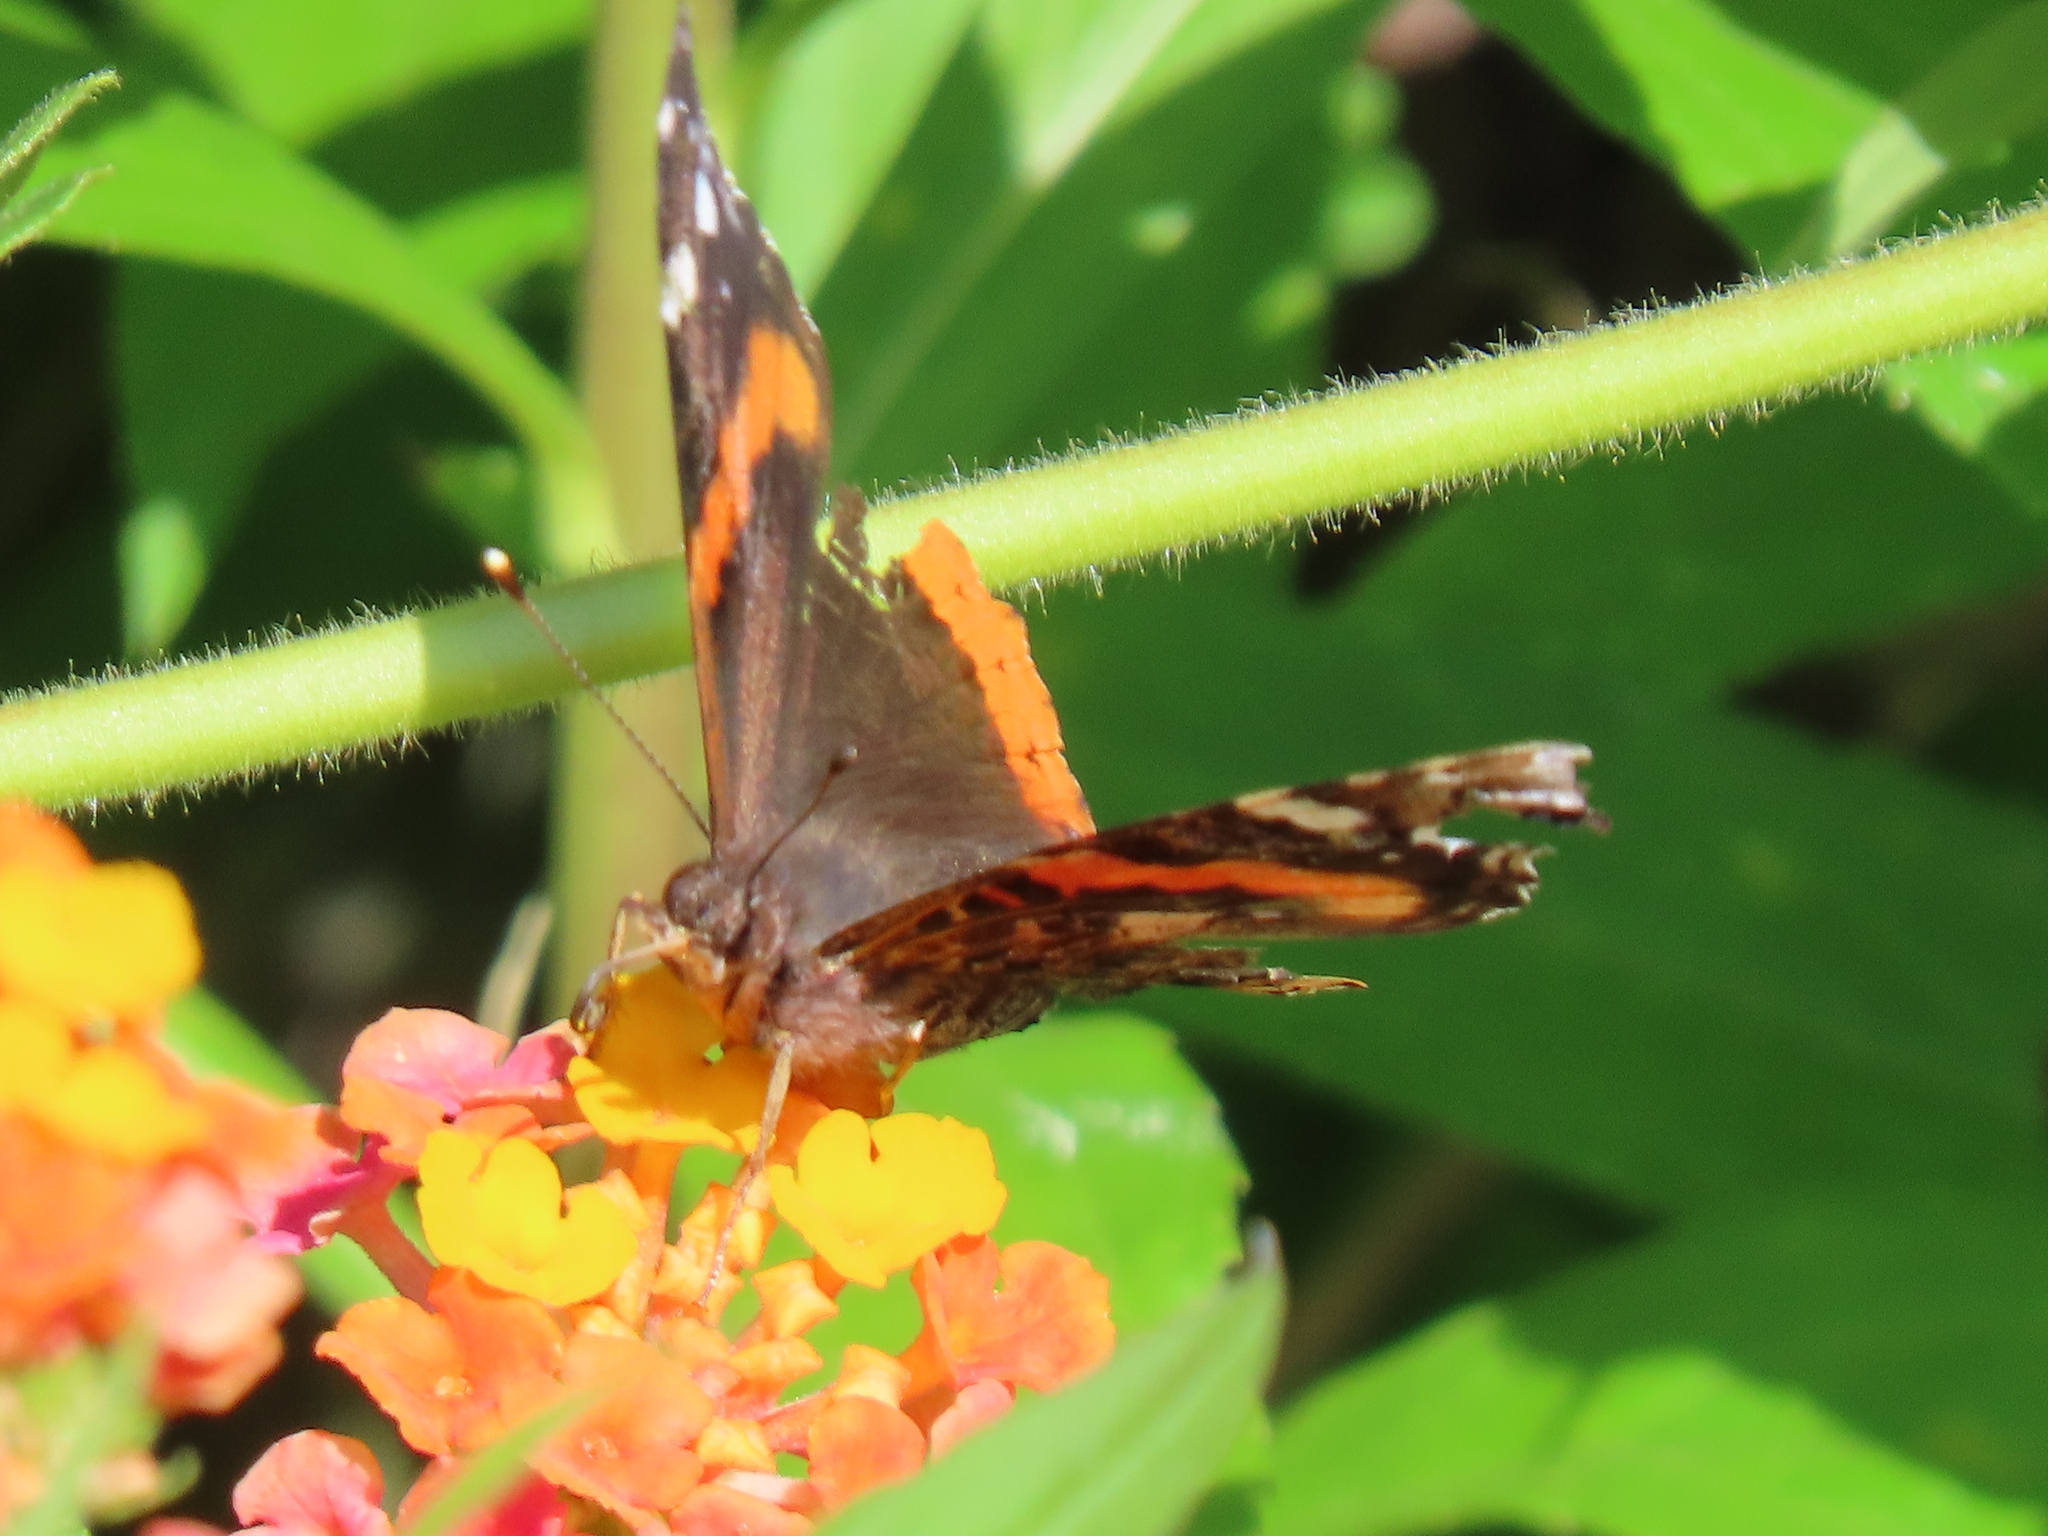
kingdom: Animalia
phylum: Arthropoda
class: Insecta
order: Lepidoptera
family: Nymphalidae
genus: Vanessa
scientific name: Vanessa atalanta
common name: Red admiral
